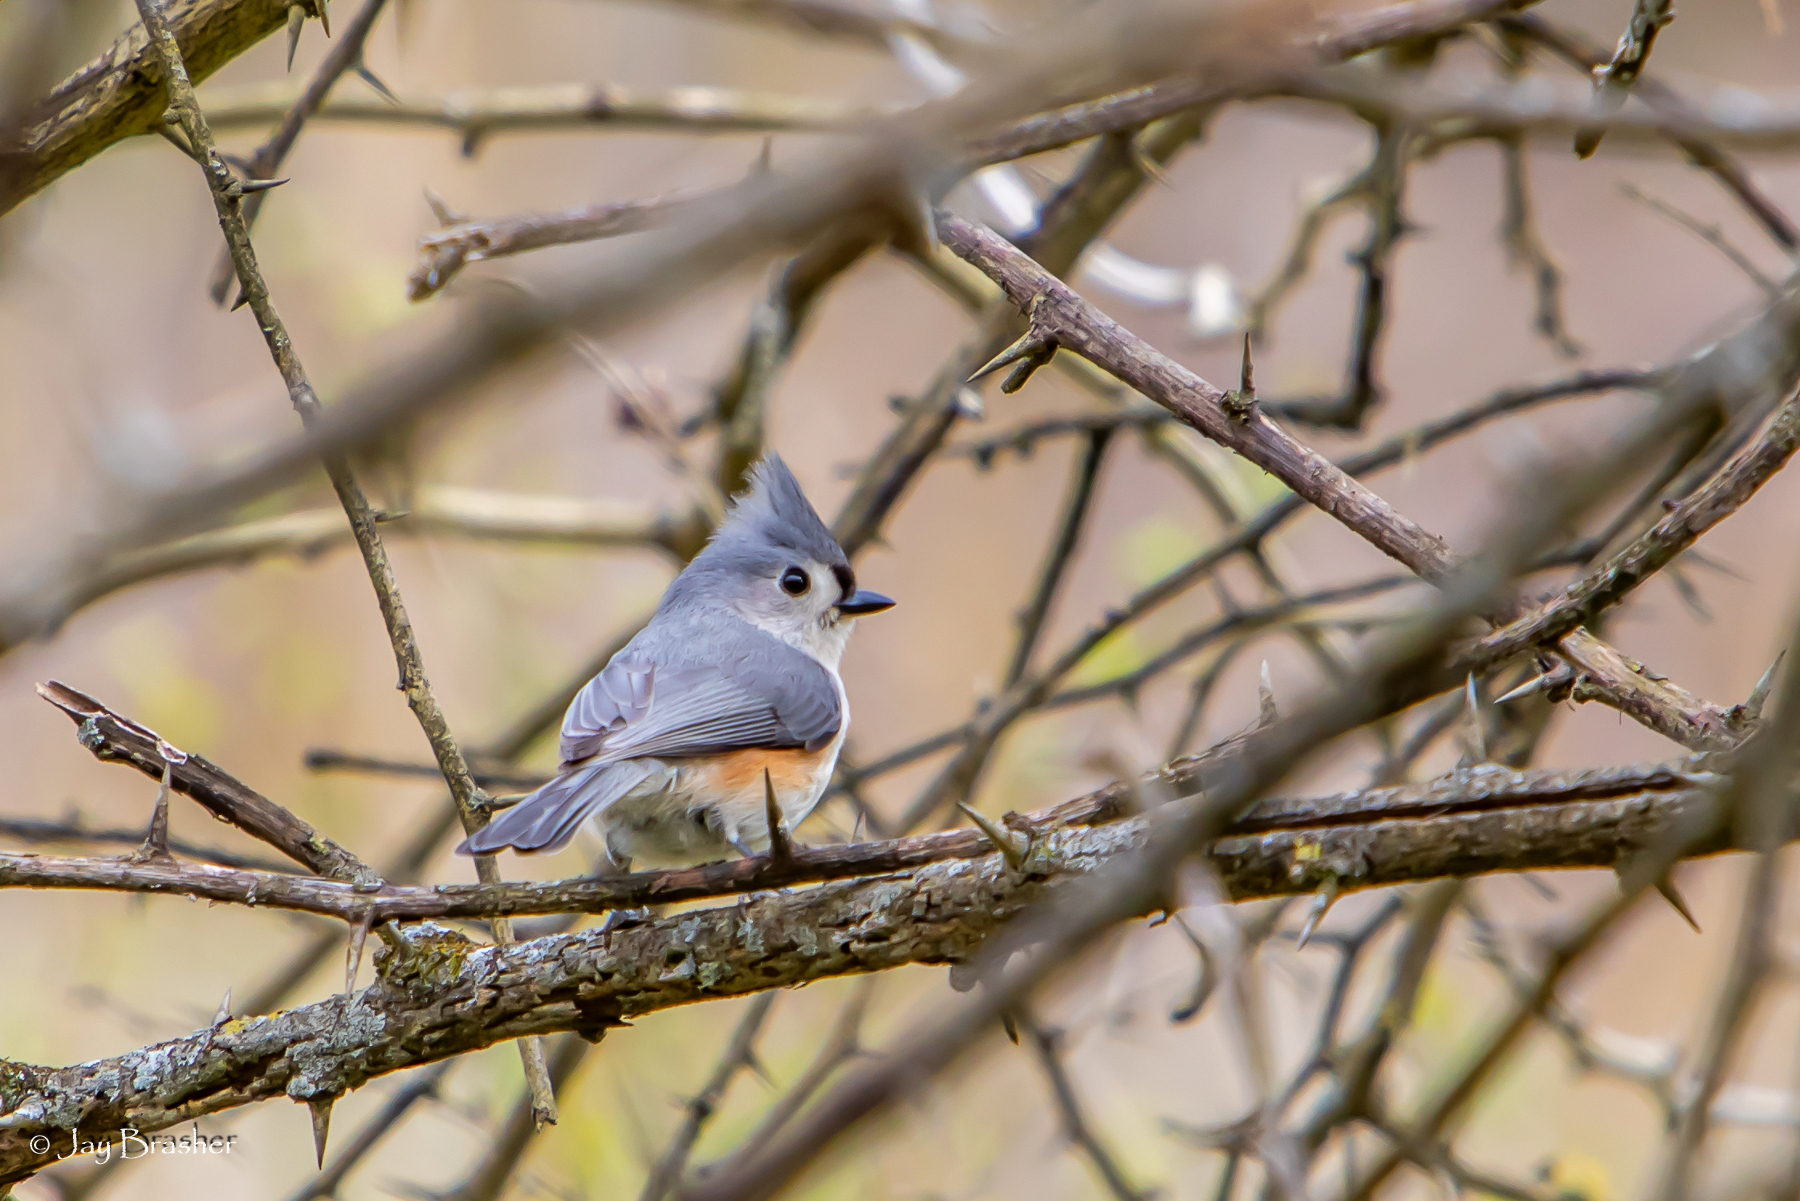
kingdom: Animalia
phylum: Chordata
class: Aves
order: Passeriformes
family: Paridae
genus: Baeolophus
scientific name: Baeolophus bicolor
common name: Tufted titmouse
